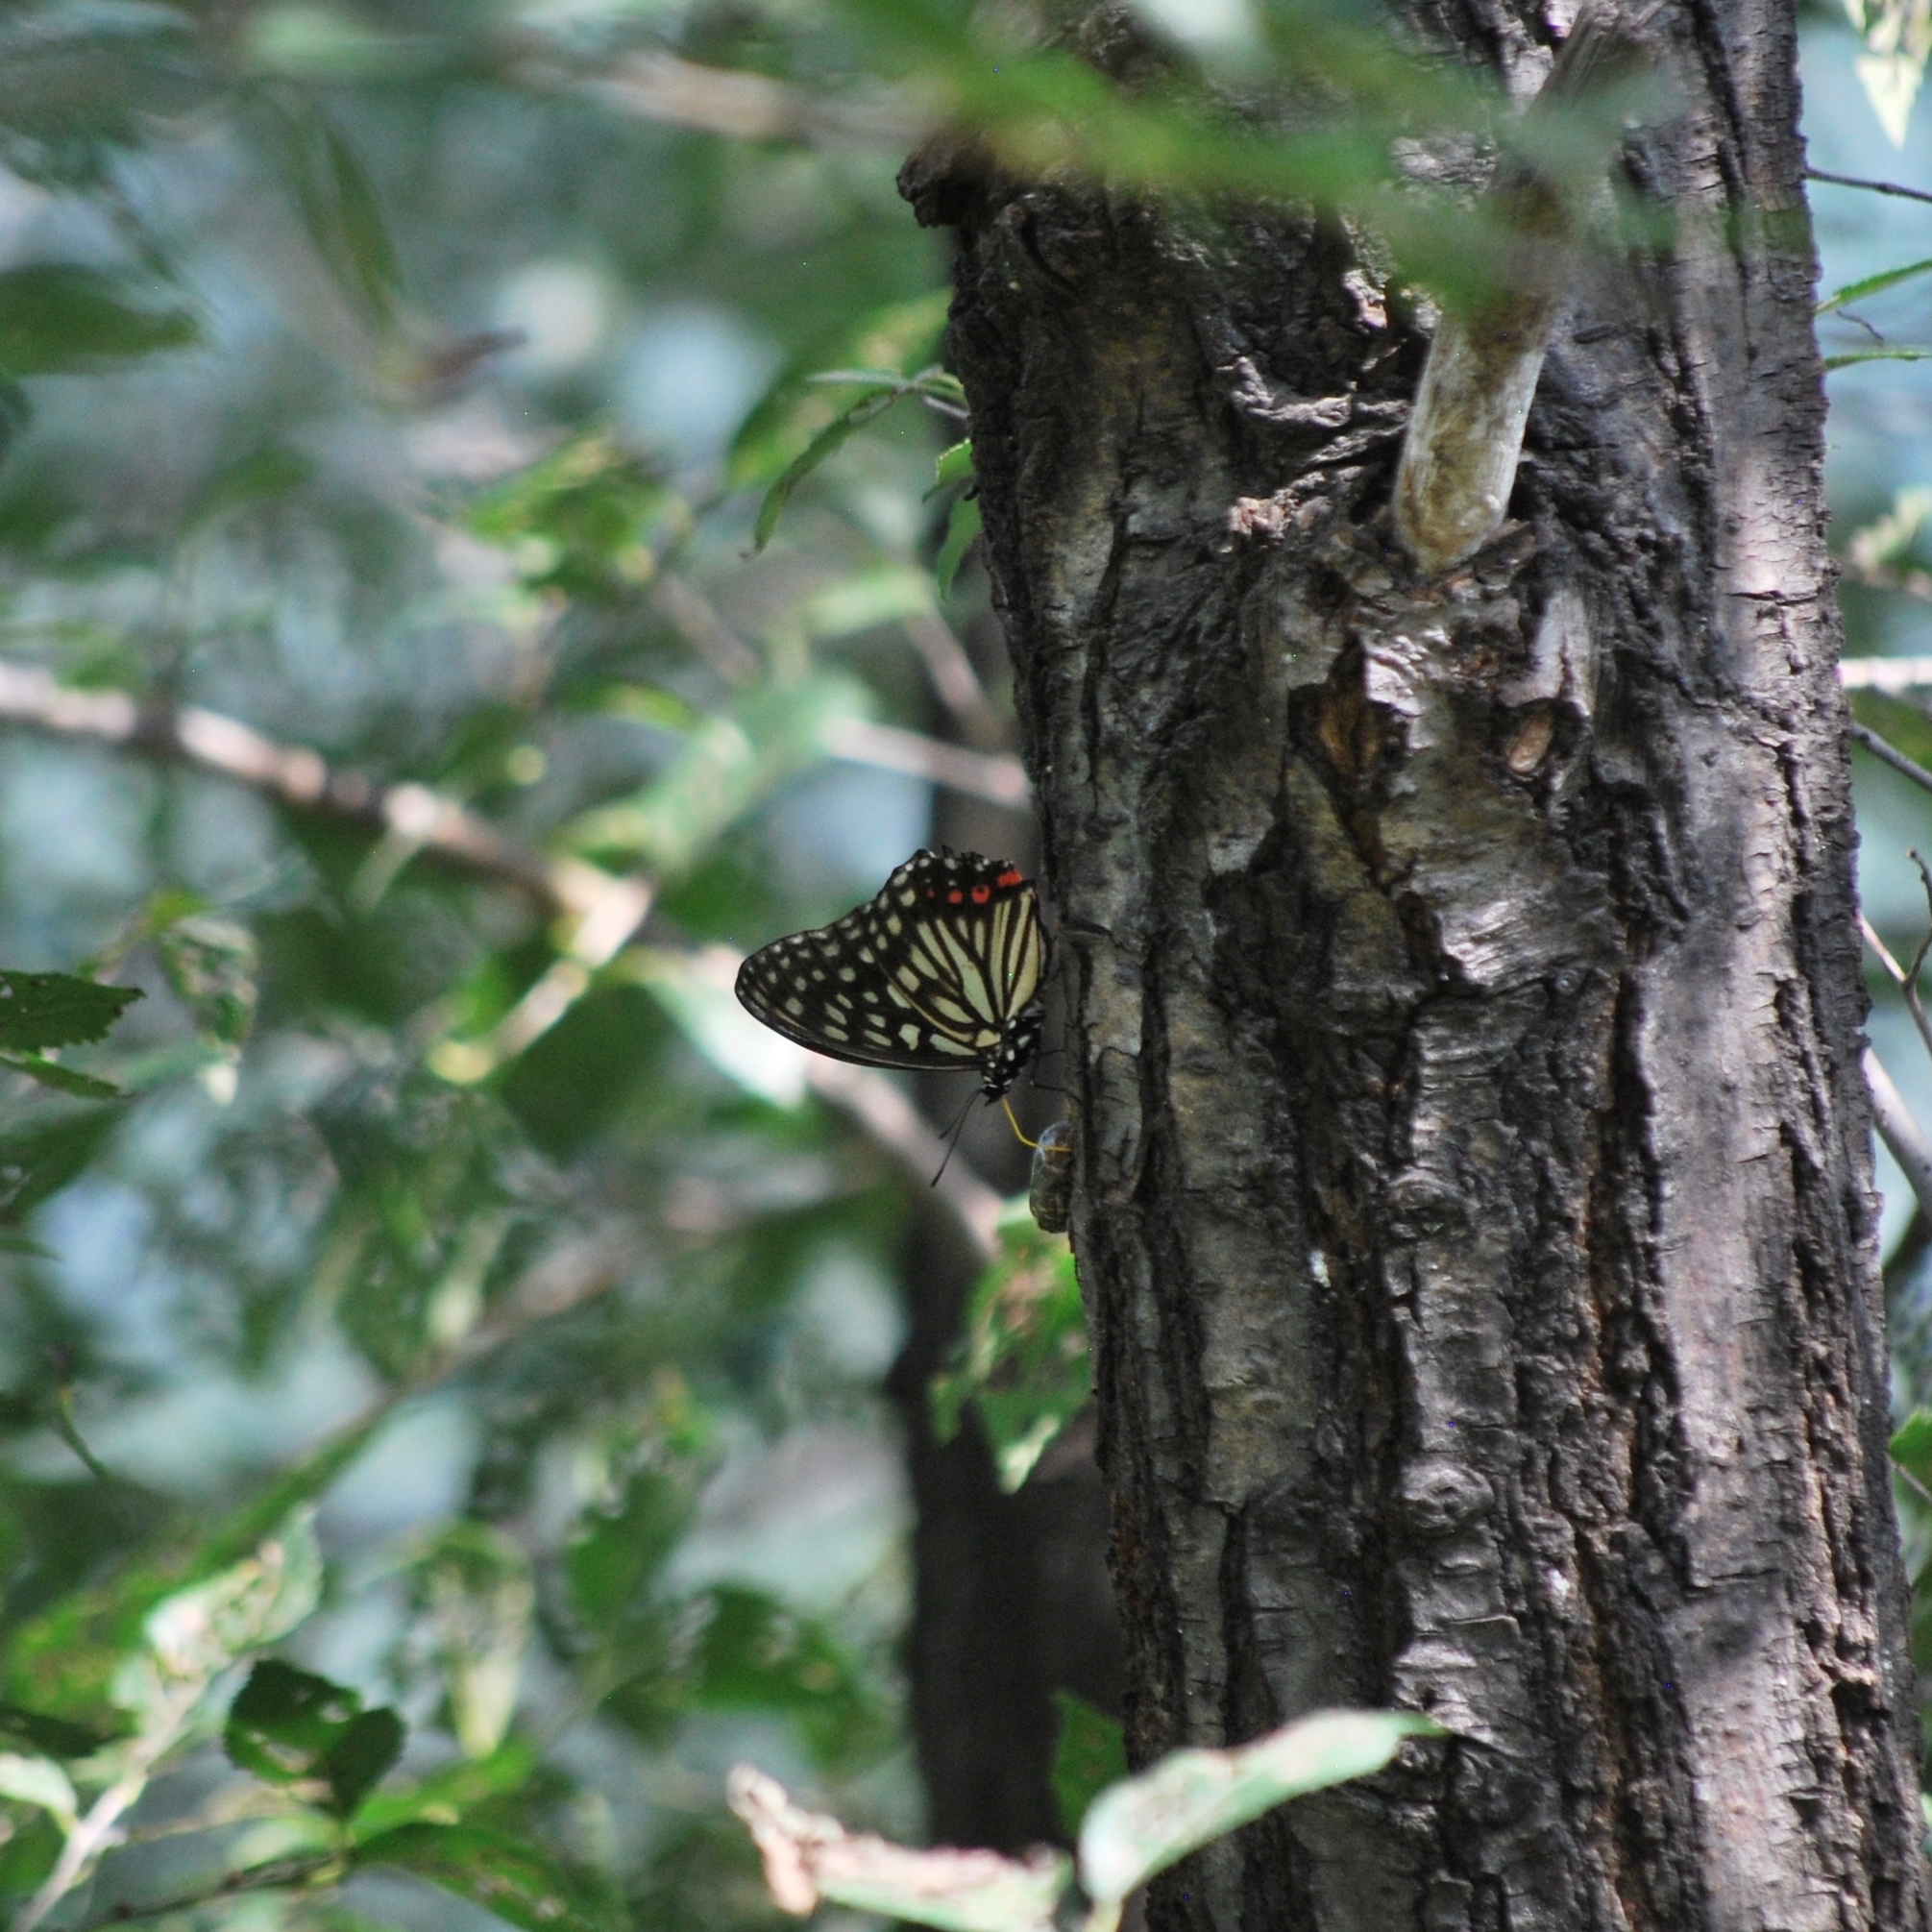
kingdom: Animalia
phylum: Arthropoda
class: Insecta
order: Lepidoptera
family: Nymphalidae
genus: Hestina
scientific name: Hestina assimilis
